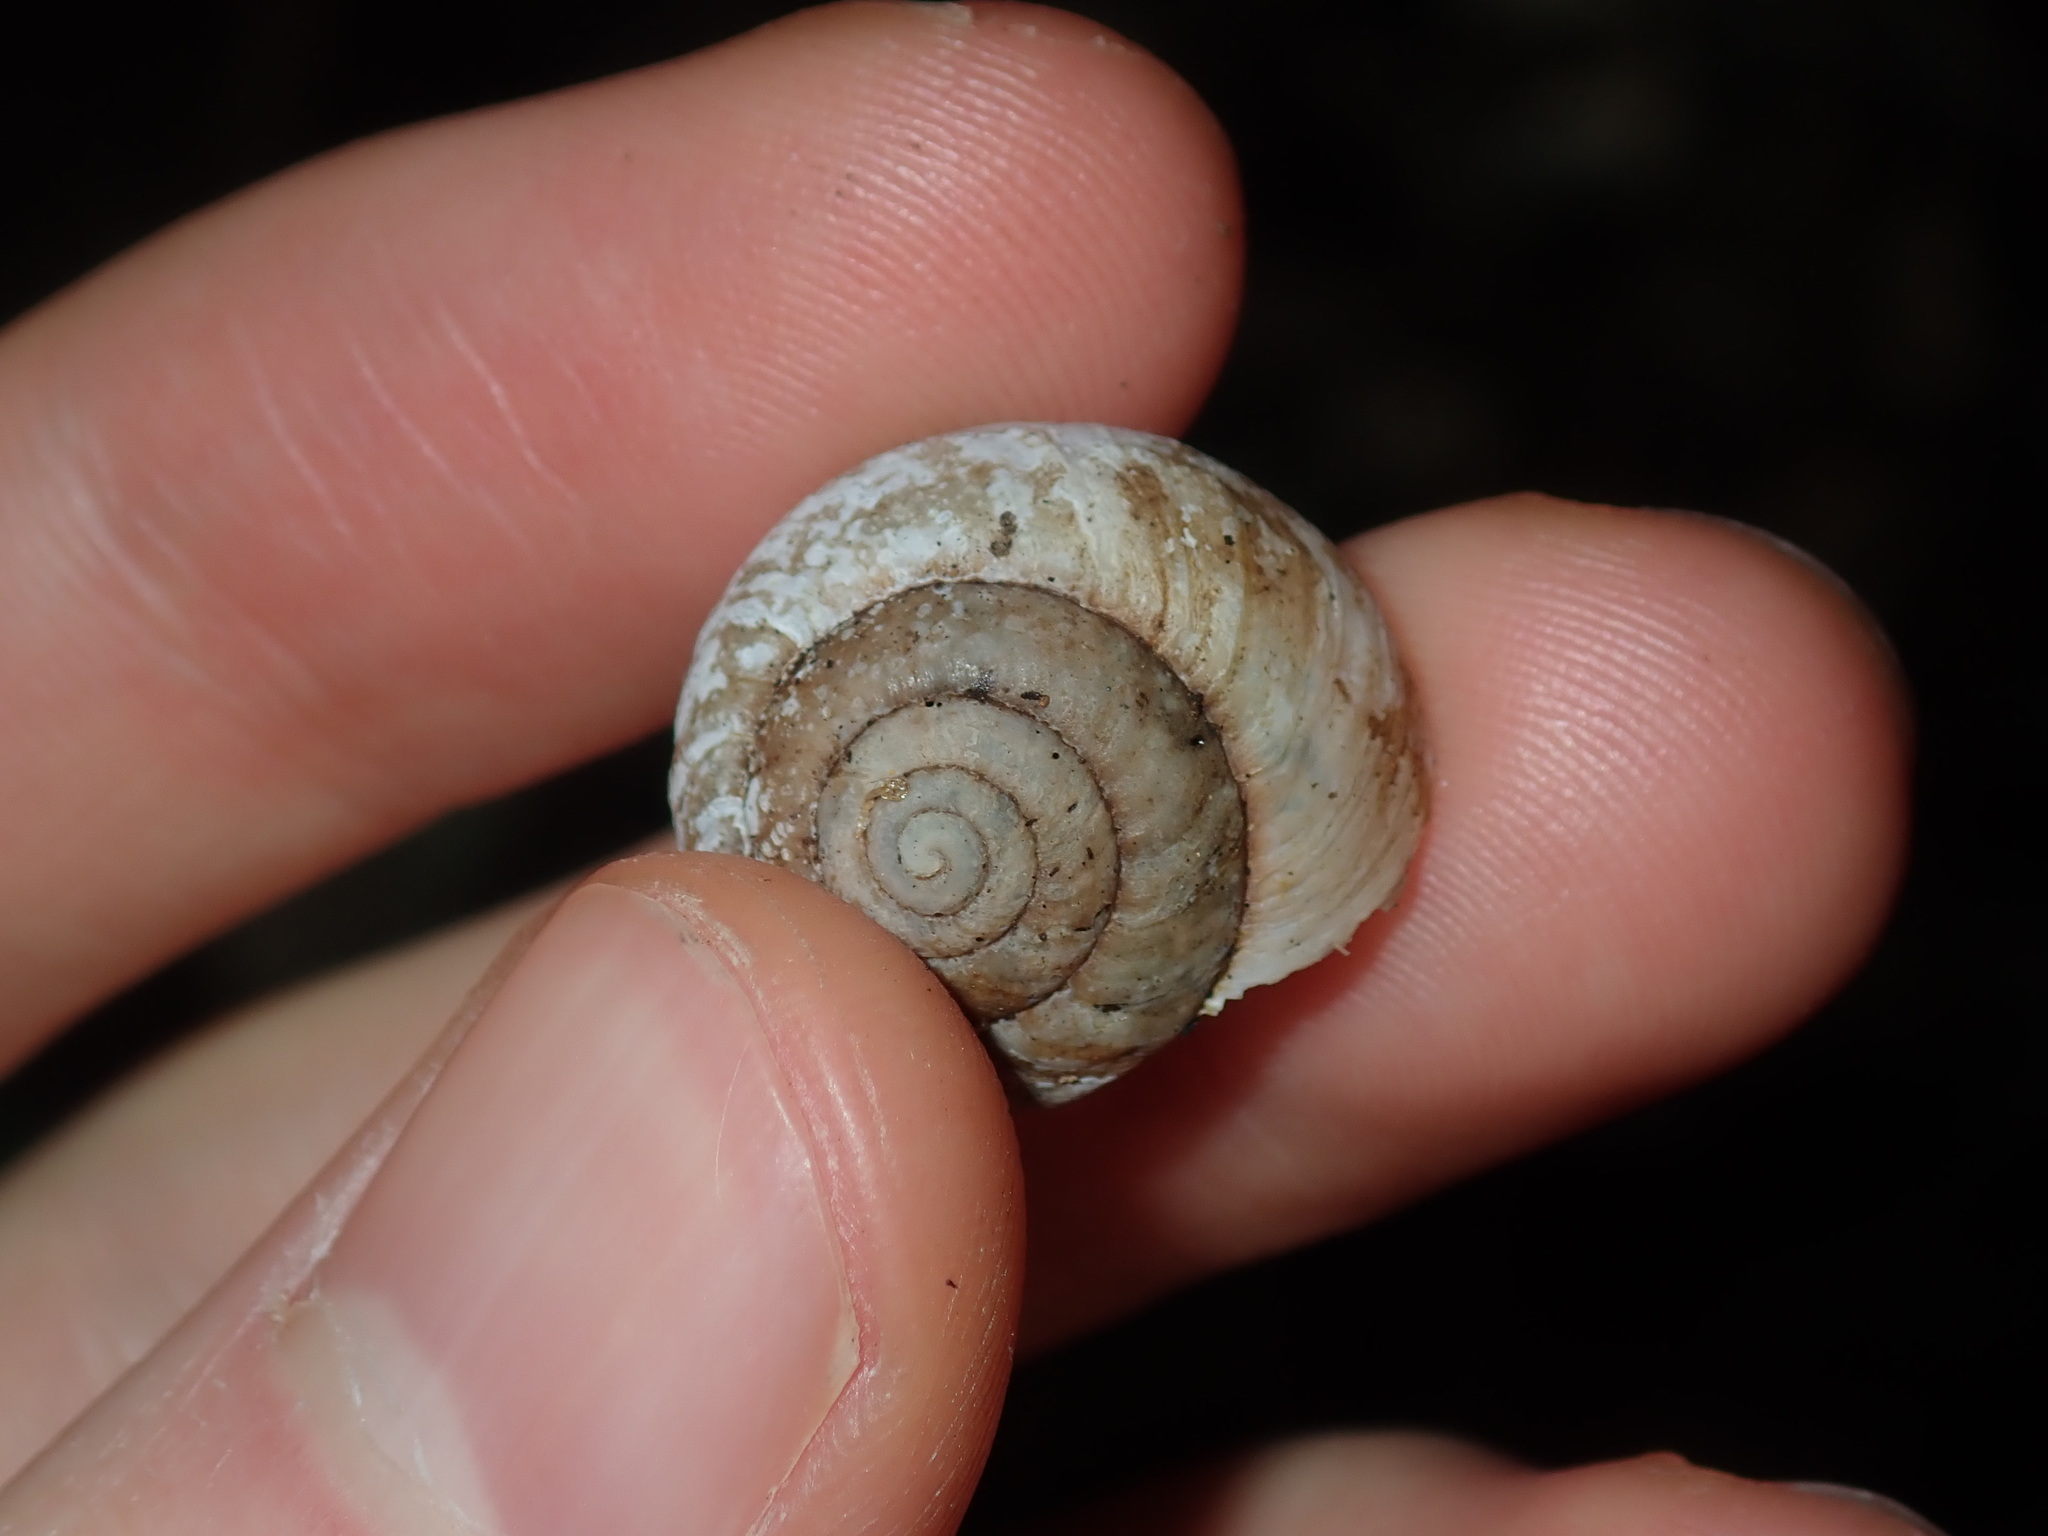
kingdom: Animalia
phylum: Mollusca
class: Gastropoda
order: Stylommatophora
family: Camaenidae
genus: Sauroconcha
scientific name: Sauroconcha sheai
